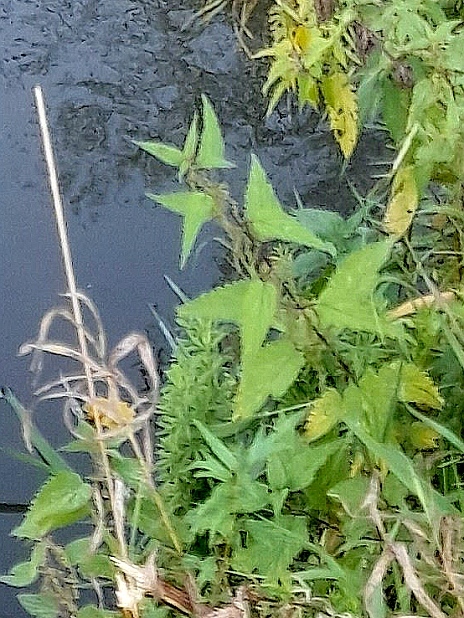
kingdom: Plantae
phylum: Tracheophyta
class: Magnoliopsida
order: Rosales
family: Urticaceae
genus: Urtica
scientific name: Urtica dioica
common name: Common nettle
